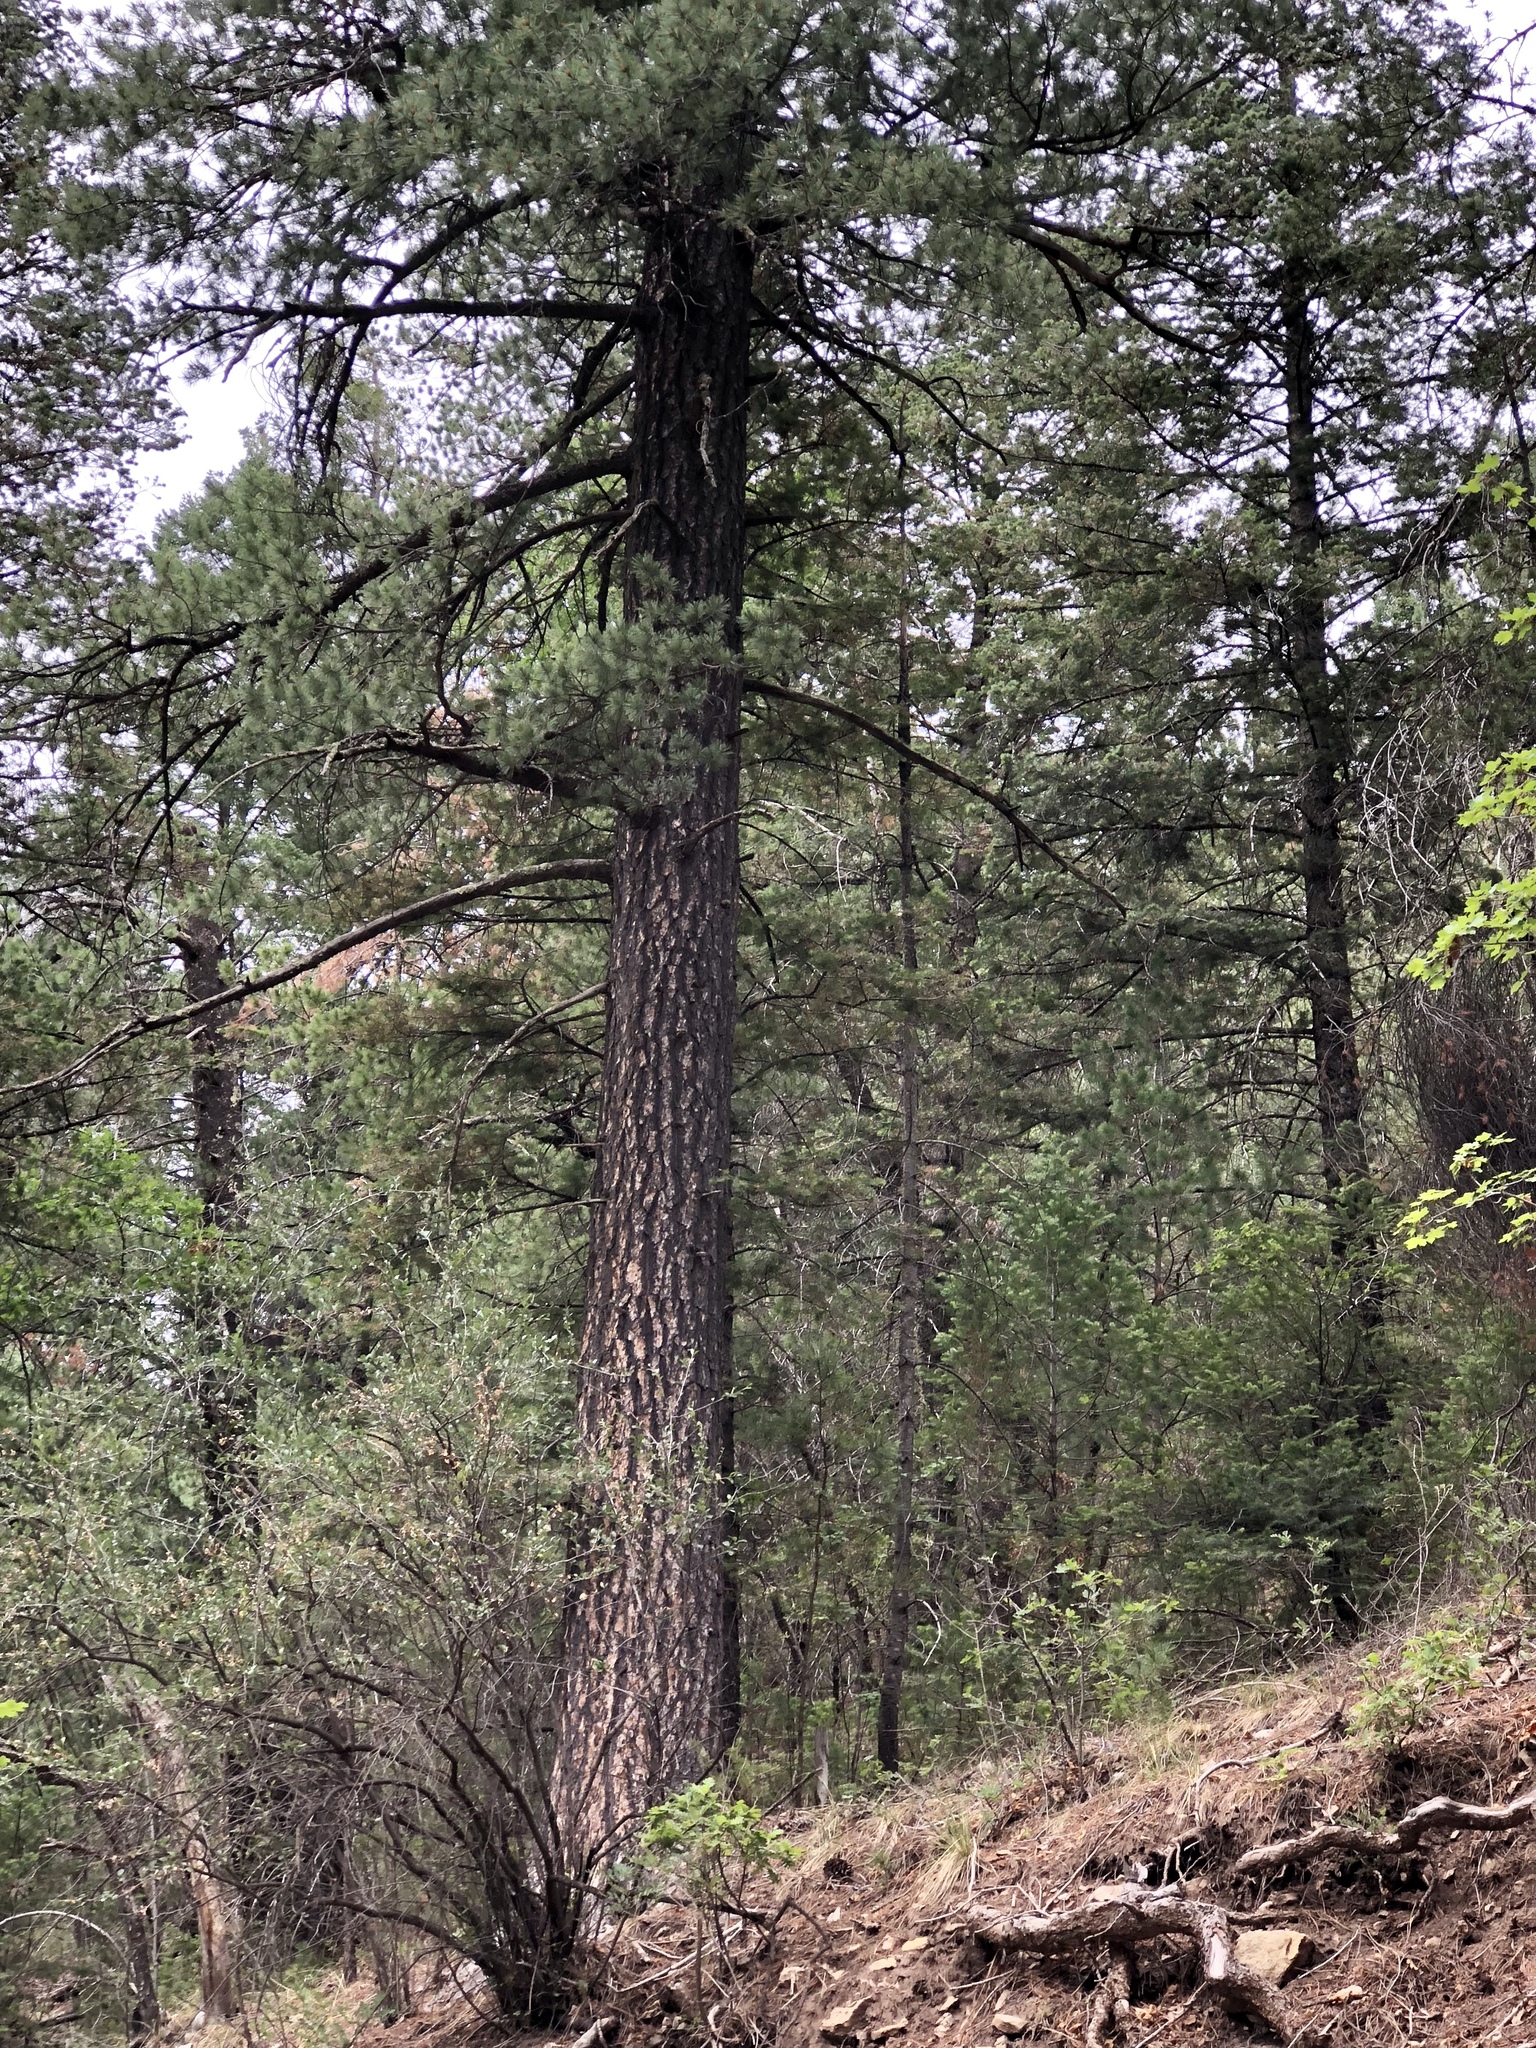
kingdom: Plantae
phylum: Tracheophyta
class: Pinopsida
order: Pinales
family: Pinaceae
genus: Pinus
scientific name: Pinus ponderosa
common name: Western yellow-pine
